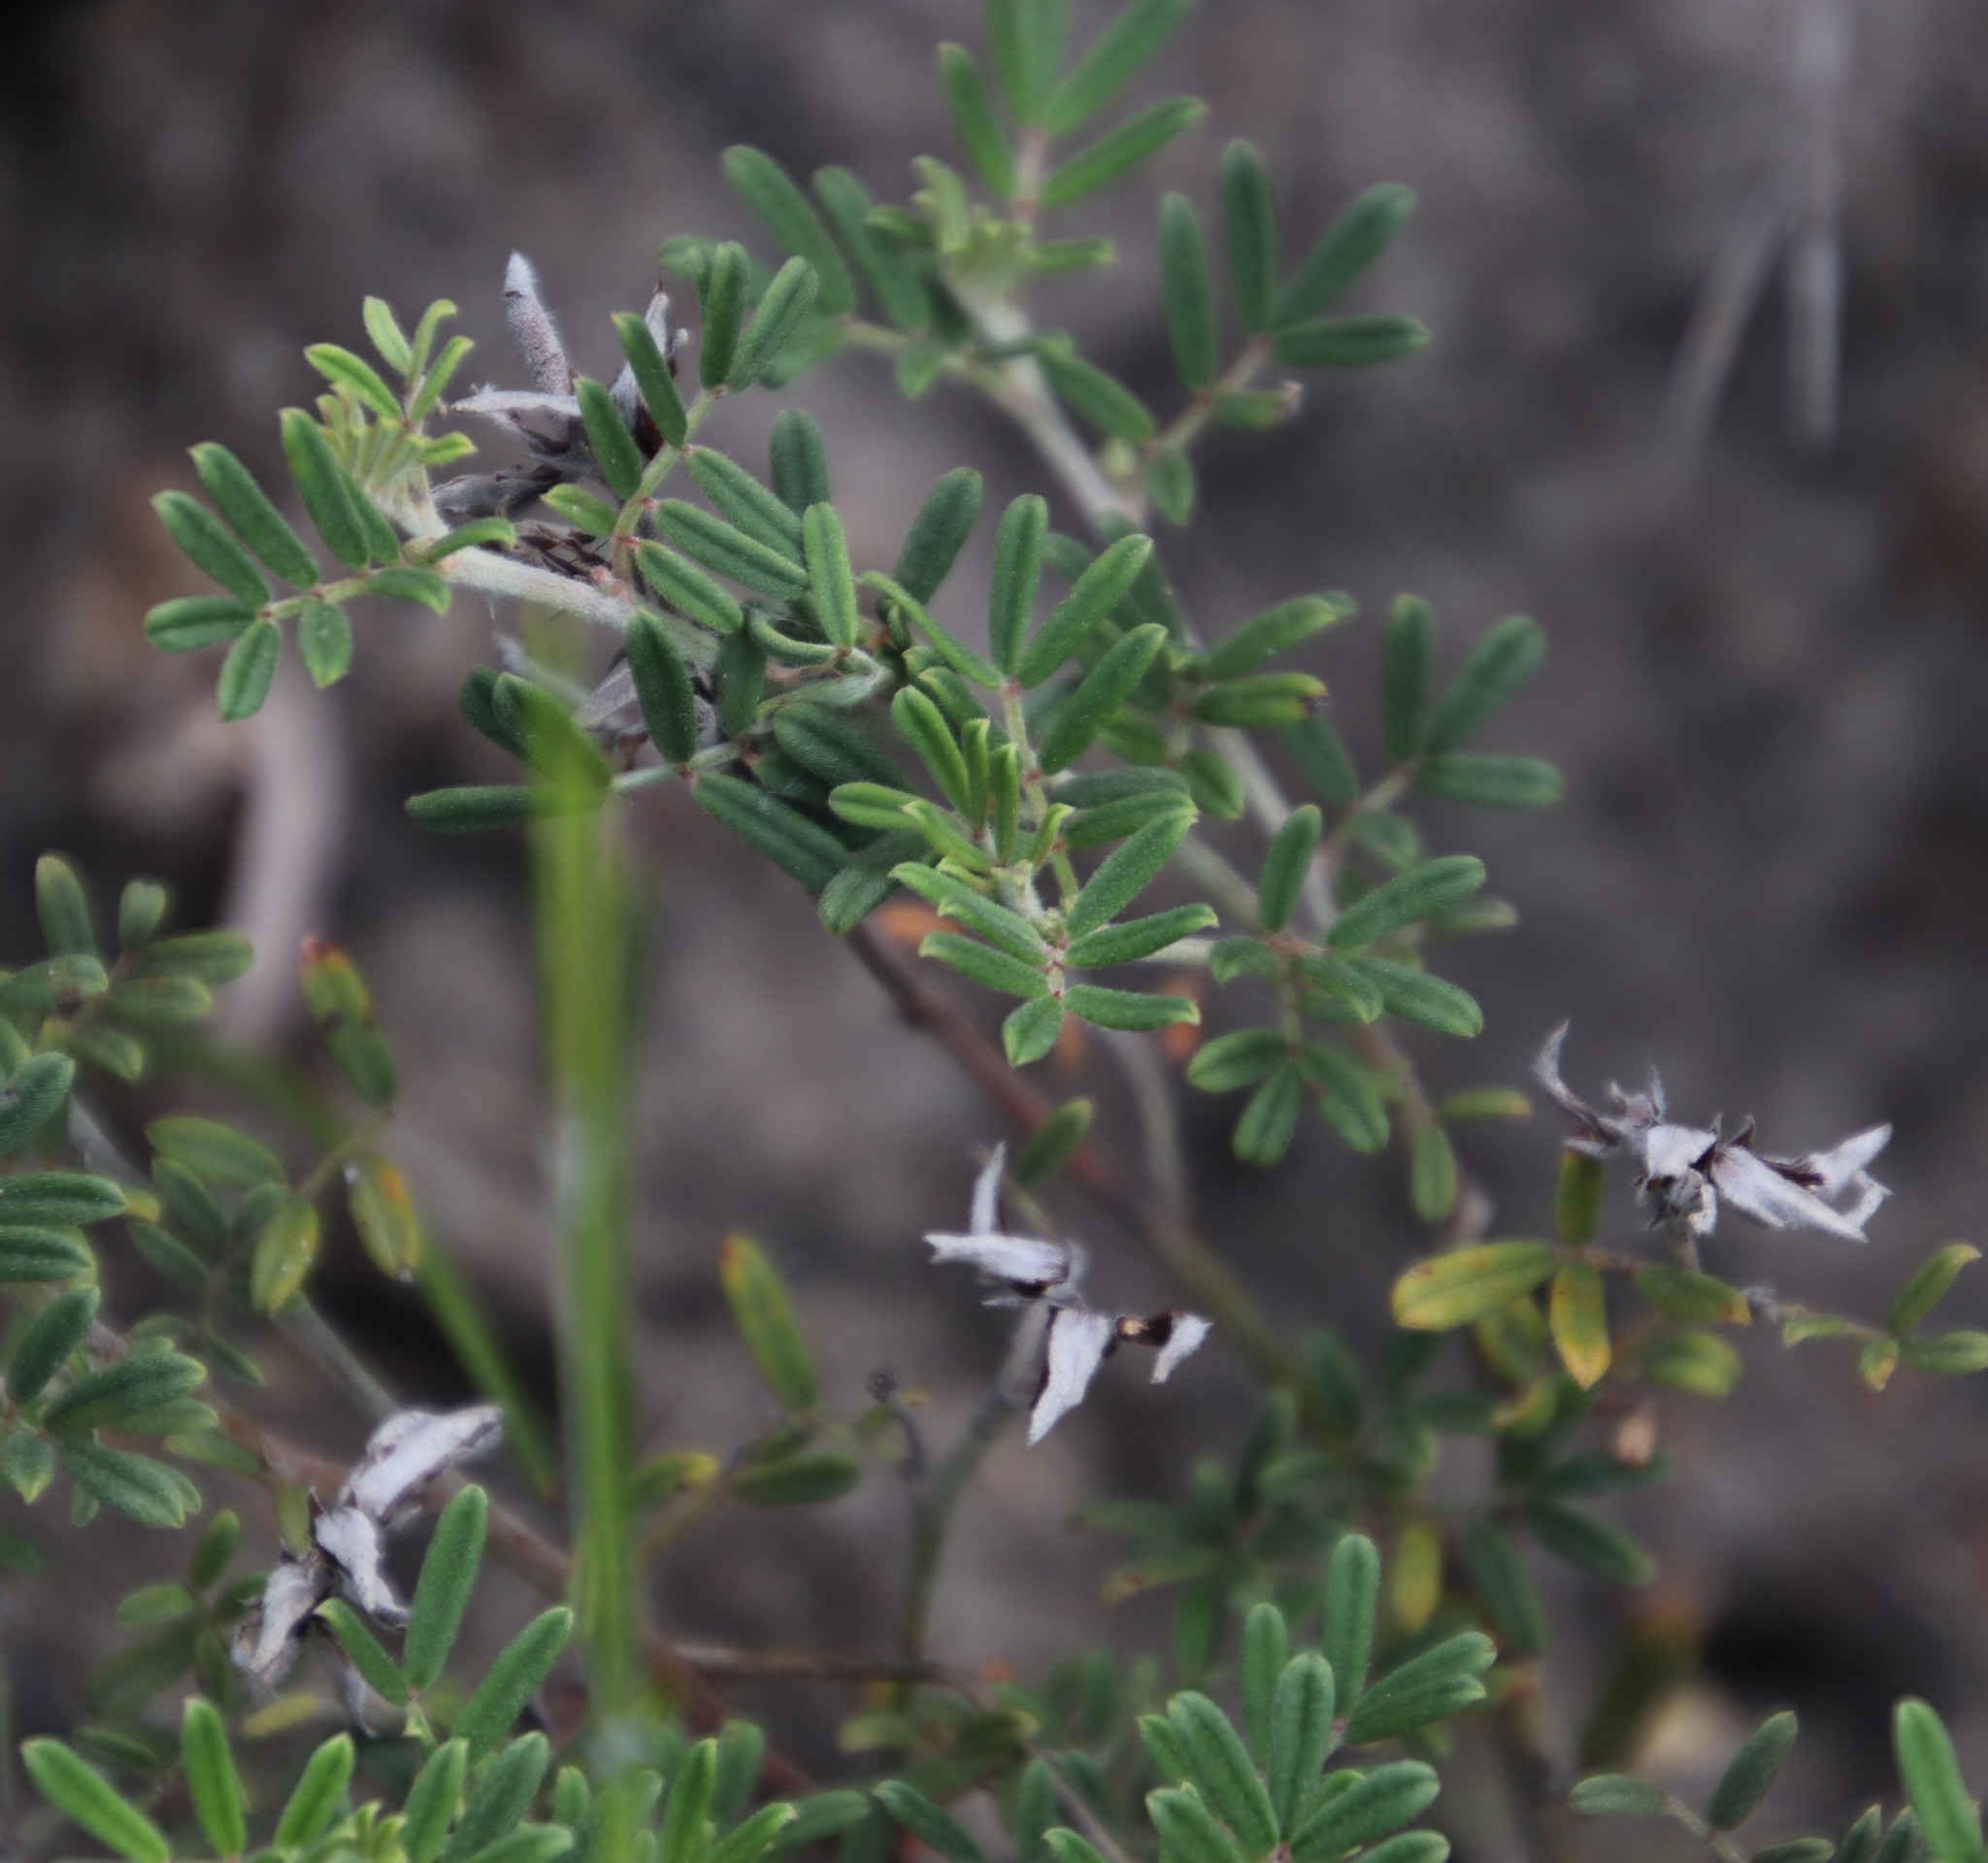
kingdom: Plantae
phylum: Tracheophyta
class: Magnoliopsida
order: Fabales
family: Fabaceae
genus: Microcharis
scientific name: Microcharis praetermissa
